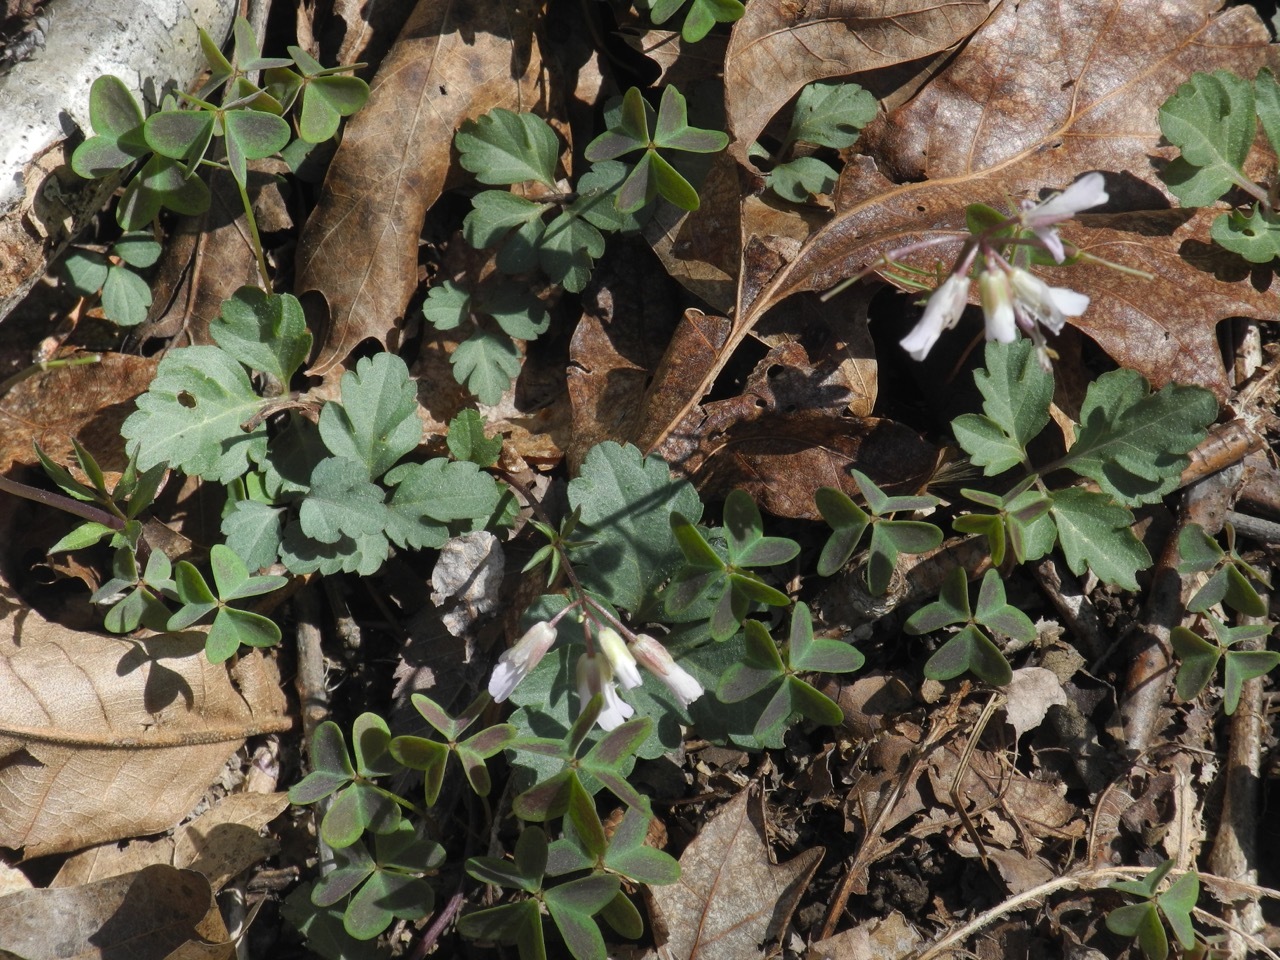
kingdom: Plantae
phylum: Tracheophyta
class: Magnoliopsida
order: Brassicales
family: Brassicaceae
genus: Cardamine
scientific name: Cardamine diphylla
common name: Broad-leaved toothwort
